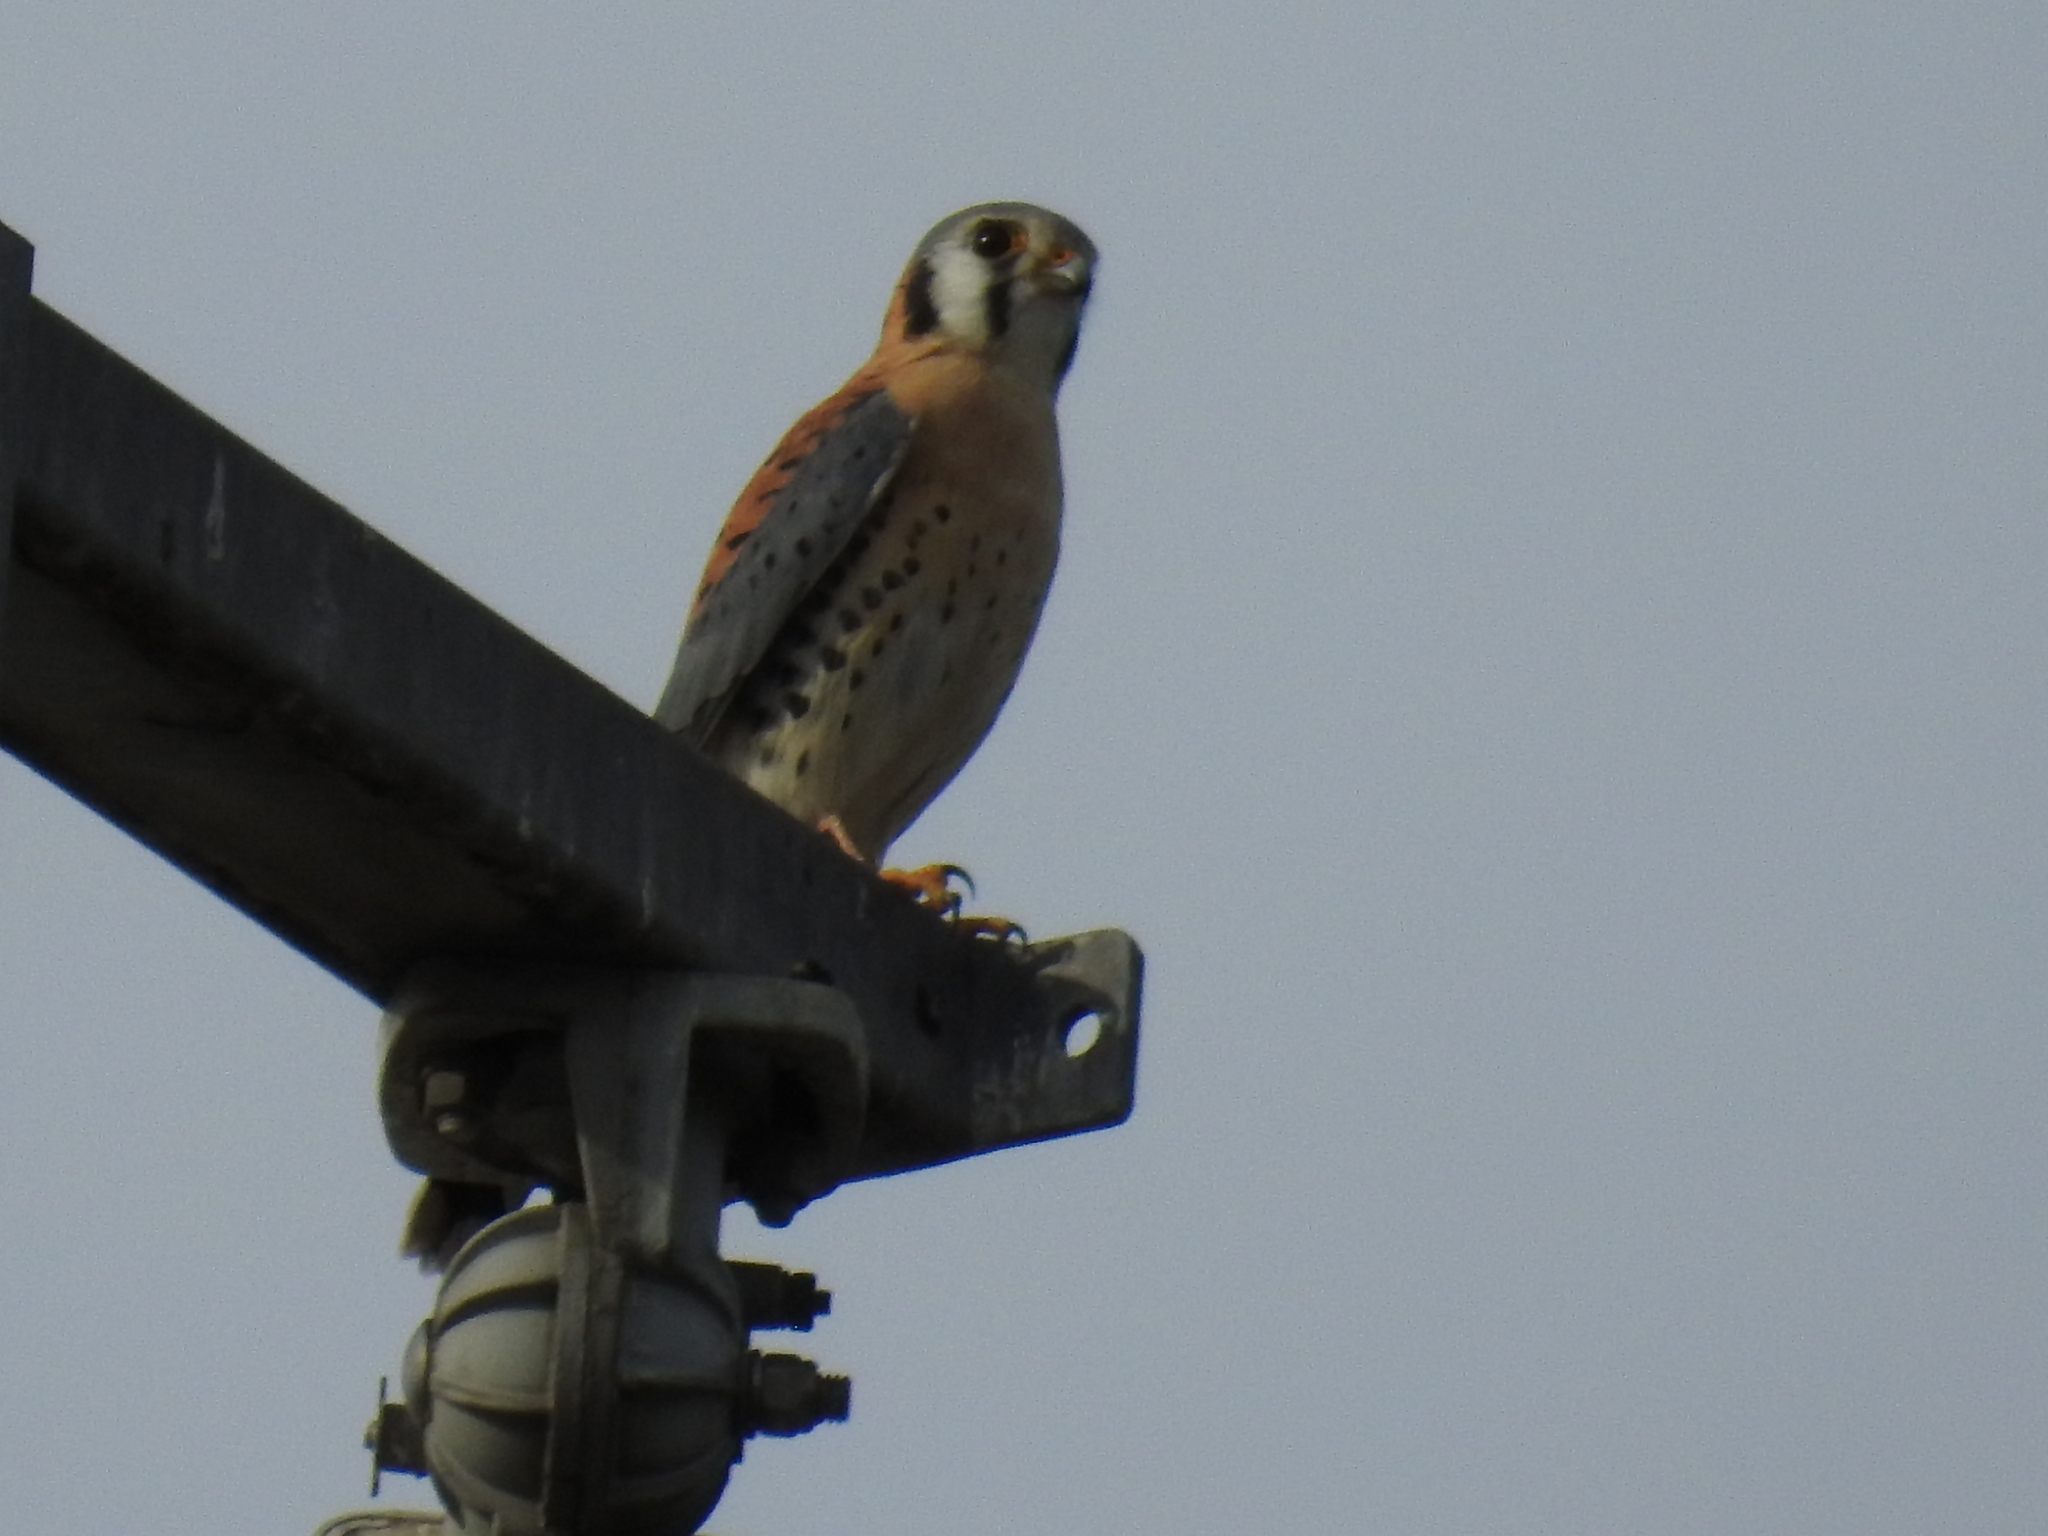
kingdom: Animalia
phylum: Chordata
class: Aves
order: Falconiformes
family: Falconidae
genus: Falco
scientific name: Falco sparverius
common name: American kestrel
